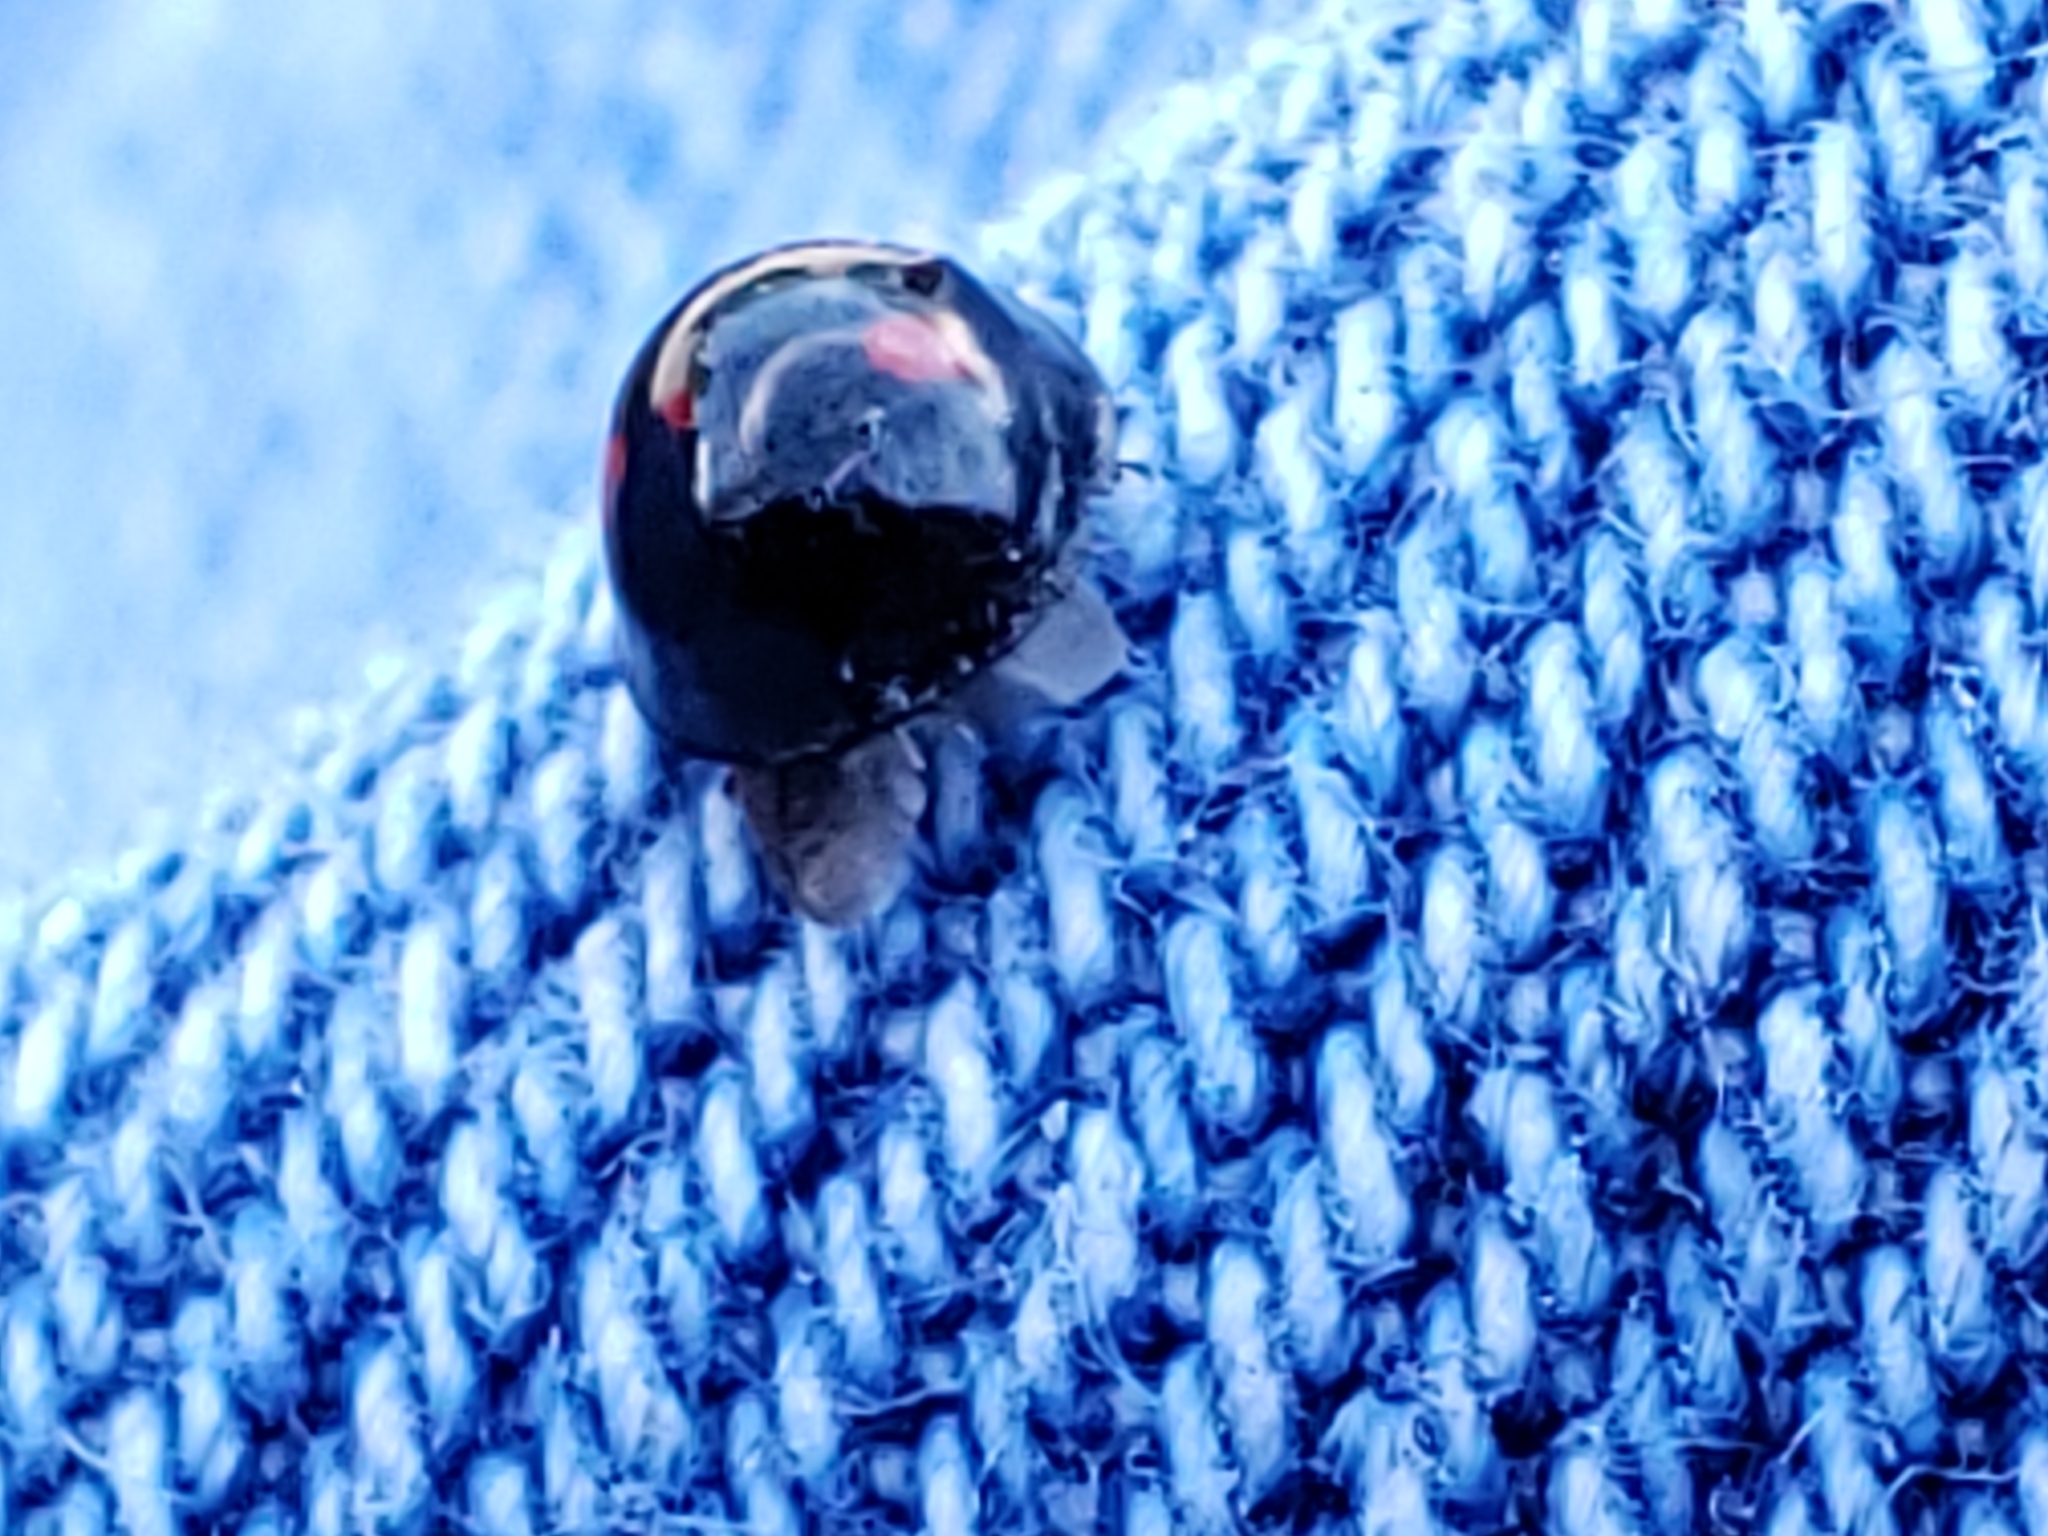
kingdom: Animalia
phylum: Arthropoda
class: Insecta
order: Coleoptera
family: Coccinellidae
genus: Chilocorus
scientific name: Chilocorus stigma
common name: Twicestabbed lady beetle
